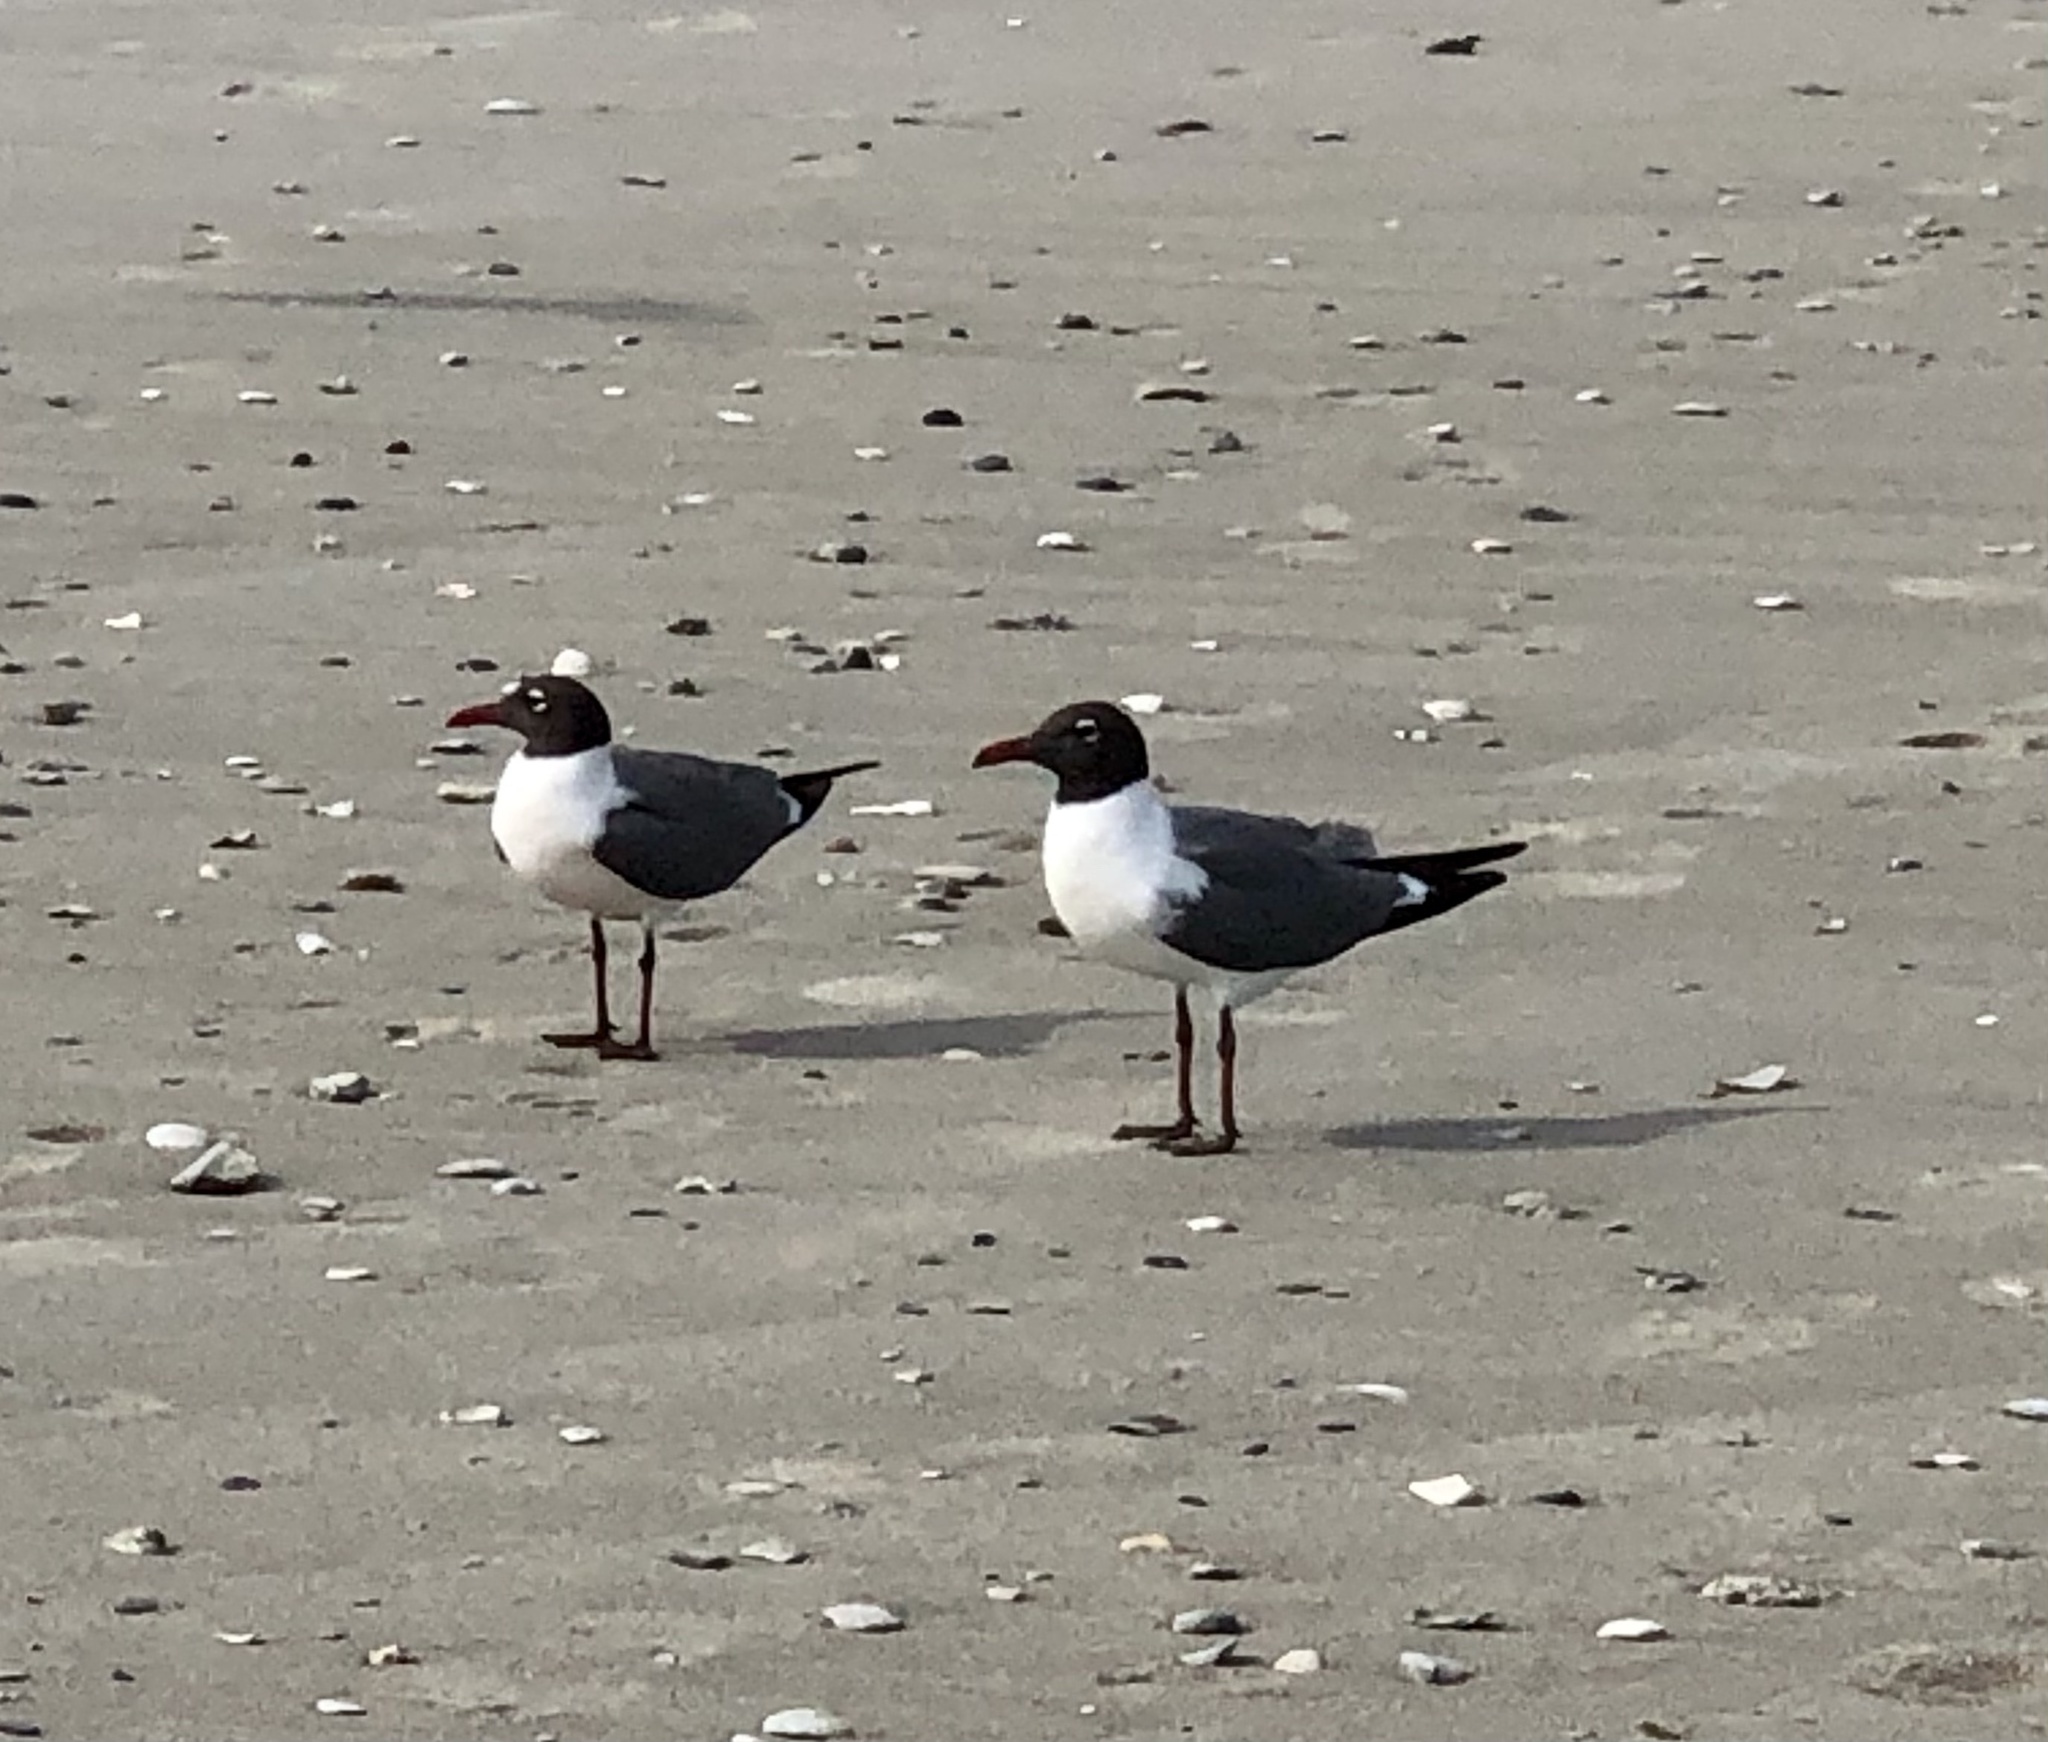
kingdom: Animalia
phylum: Chordata
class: Aves
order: Charadriiformes
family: Laridae
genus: Leucophaeus
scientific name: Leucophaeus atricilla
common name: Laughing gull
